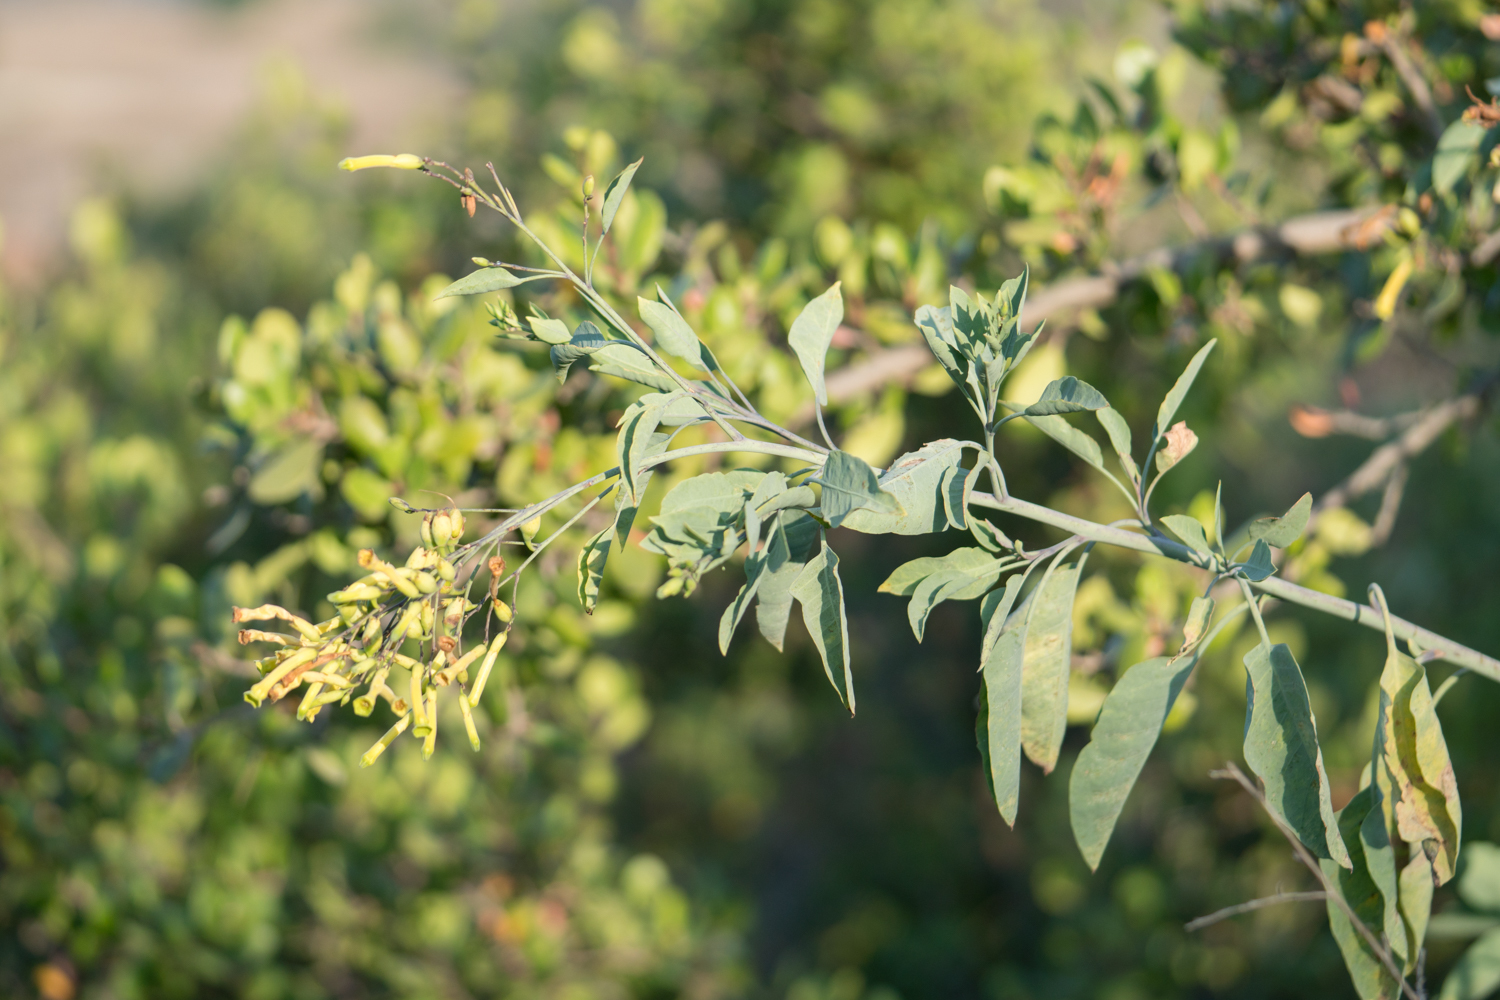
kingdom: Plantae
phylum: Tracheophyta
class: Magnoliopsida
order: Solanales
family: Solanaceae
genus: Nicotiana
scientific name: Nicotiana glauca
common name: Tree tobacco
